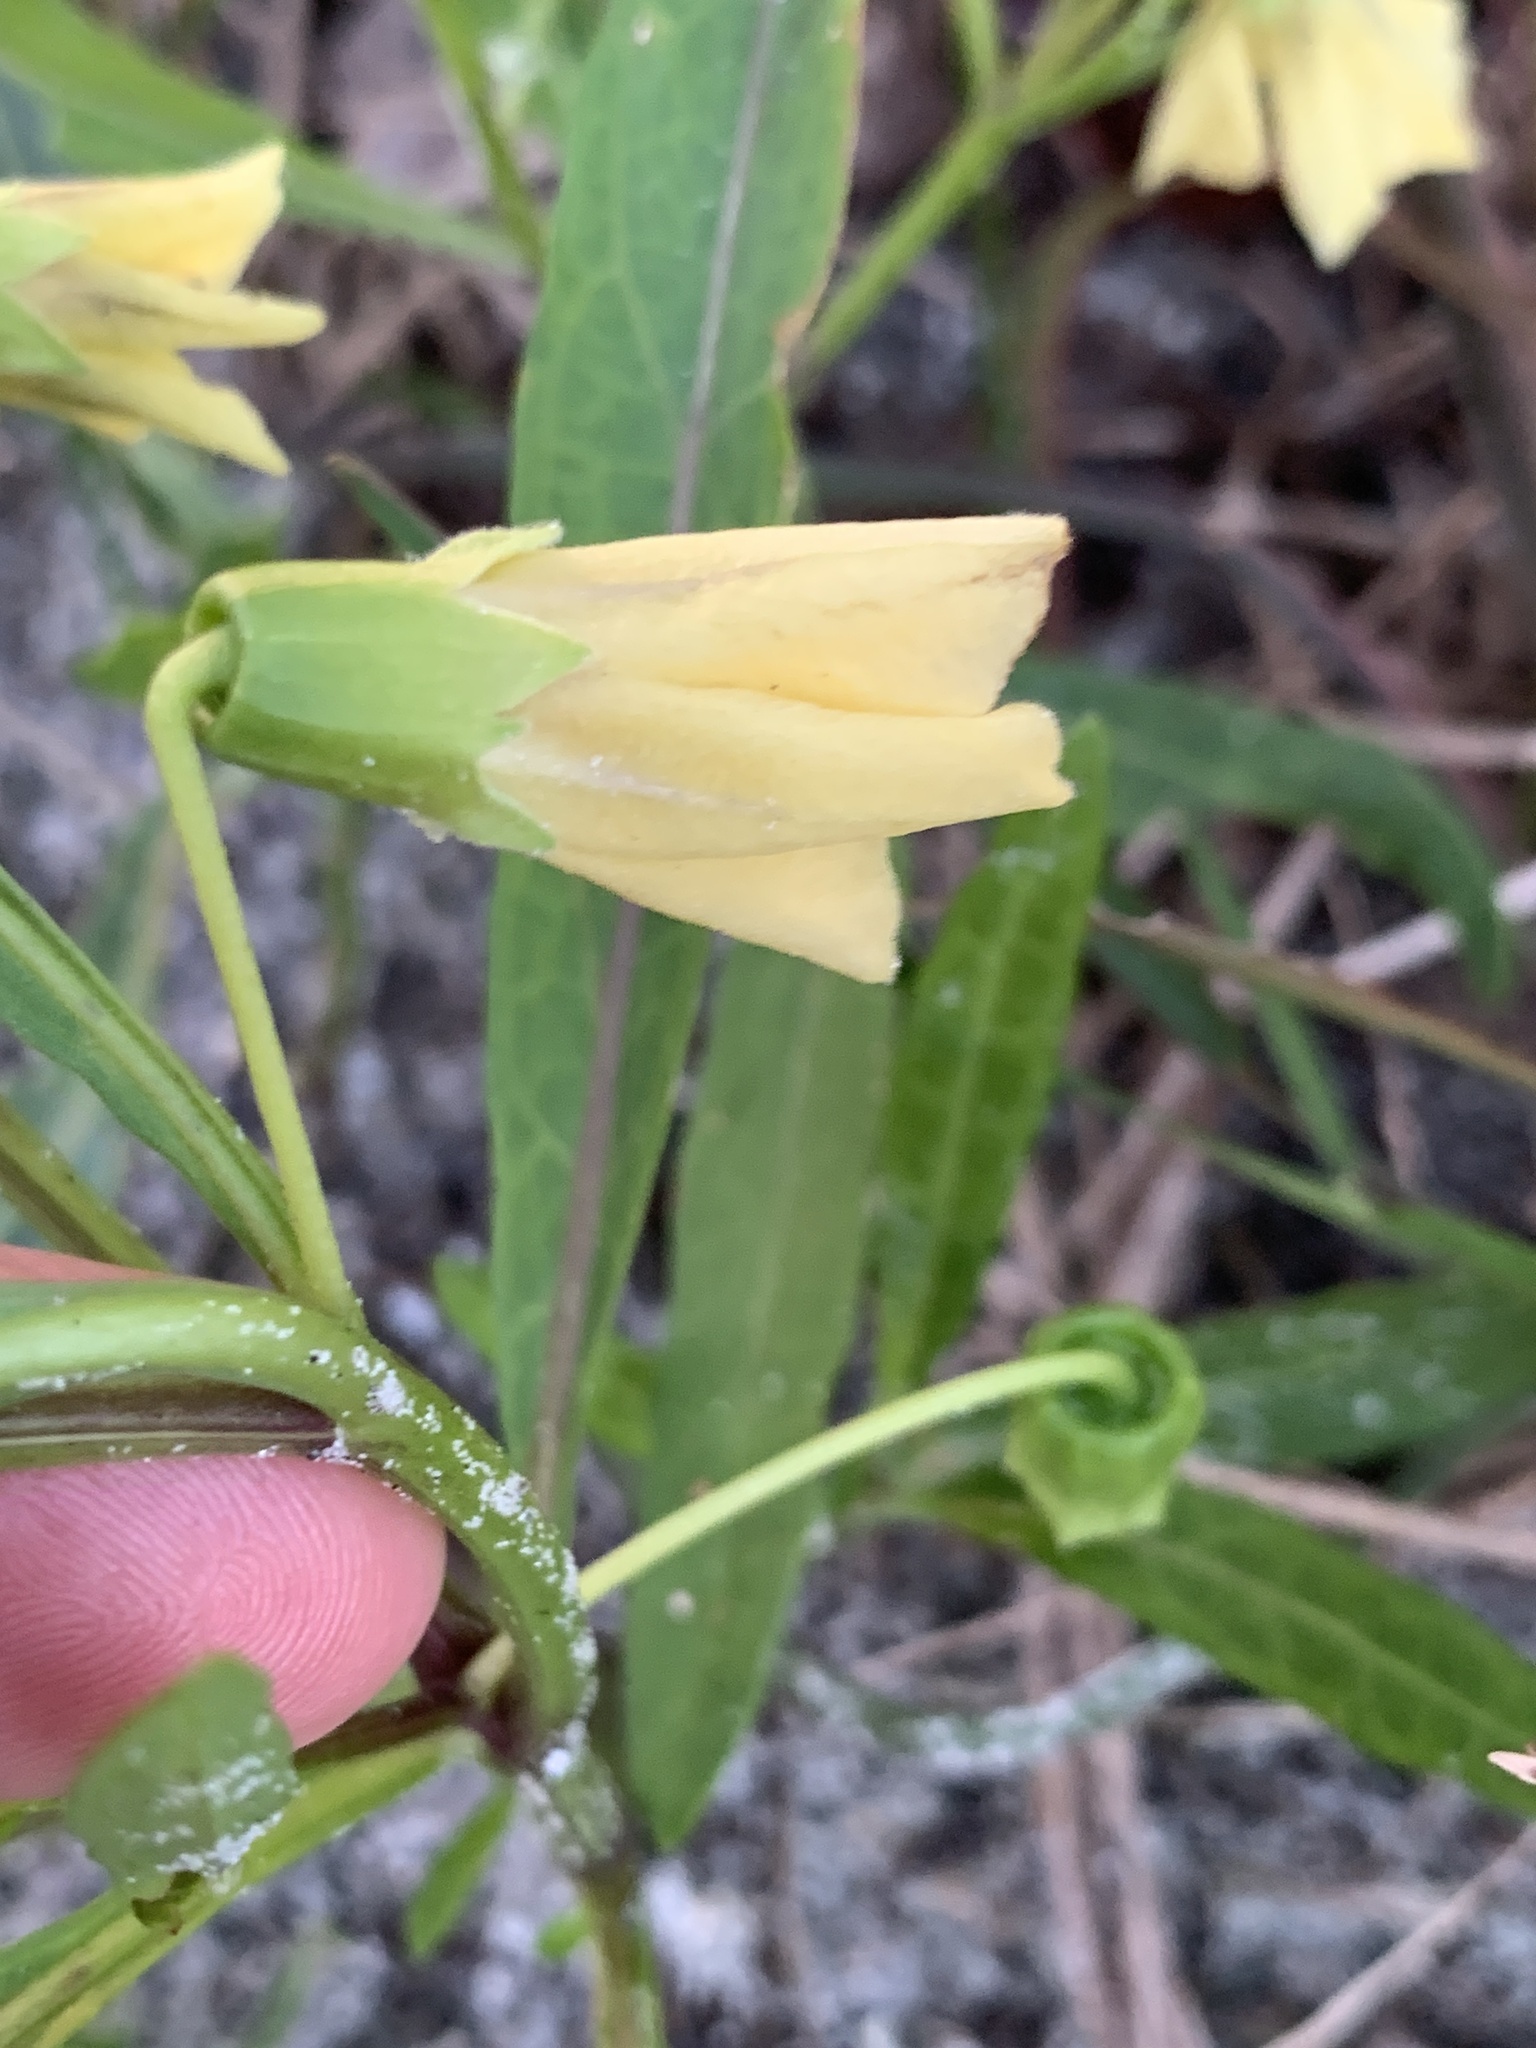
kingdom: Plantae
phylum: Tracheophyta
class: Magnoliopsida
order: Solanales
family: Solanaceae
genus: Physalis
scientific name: Physalis elliottii
